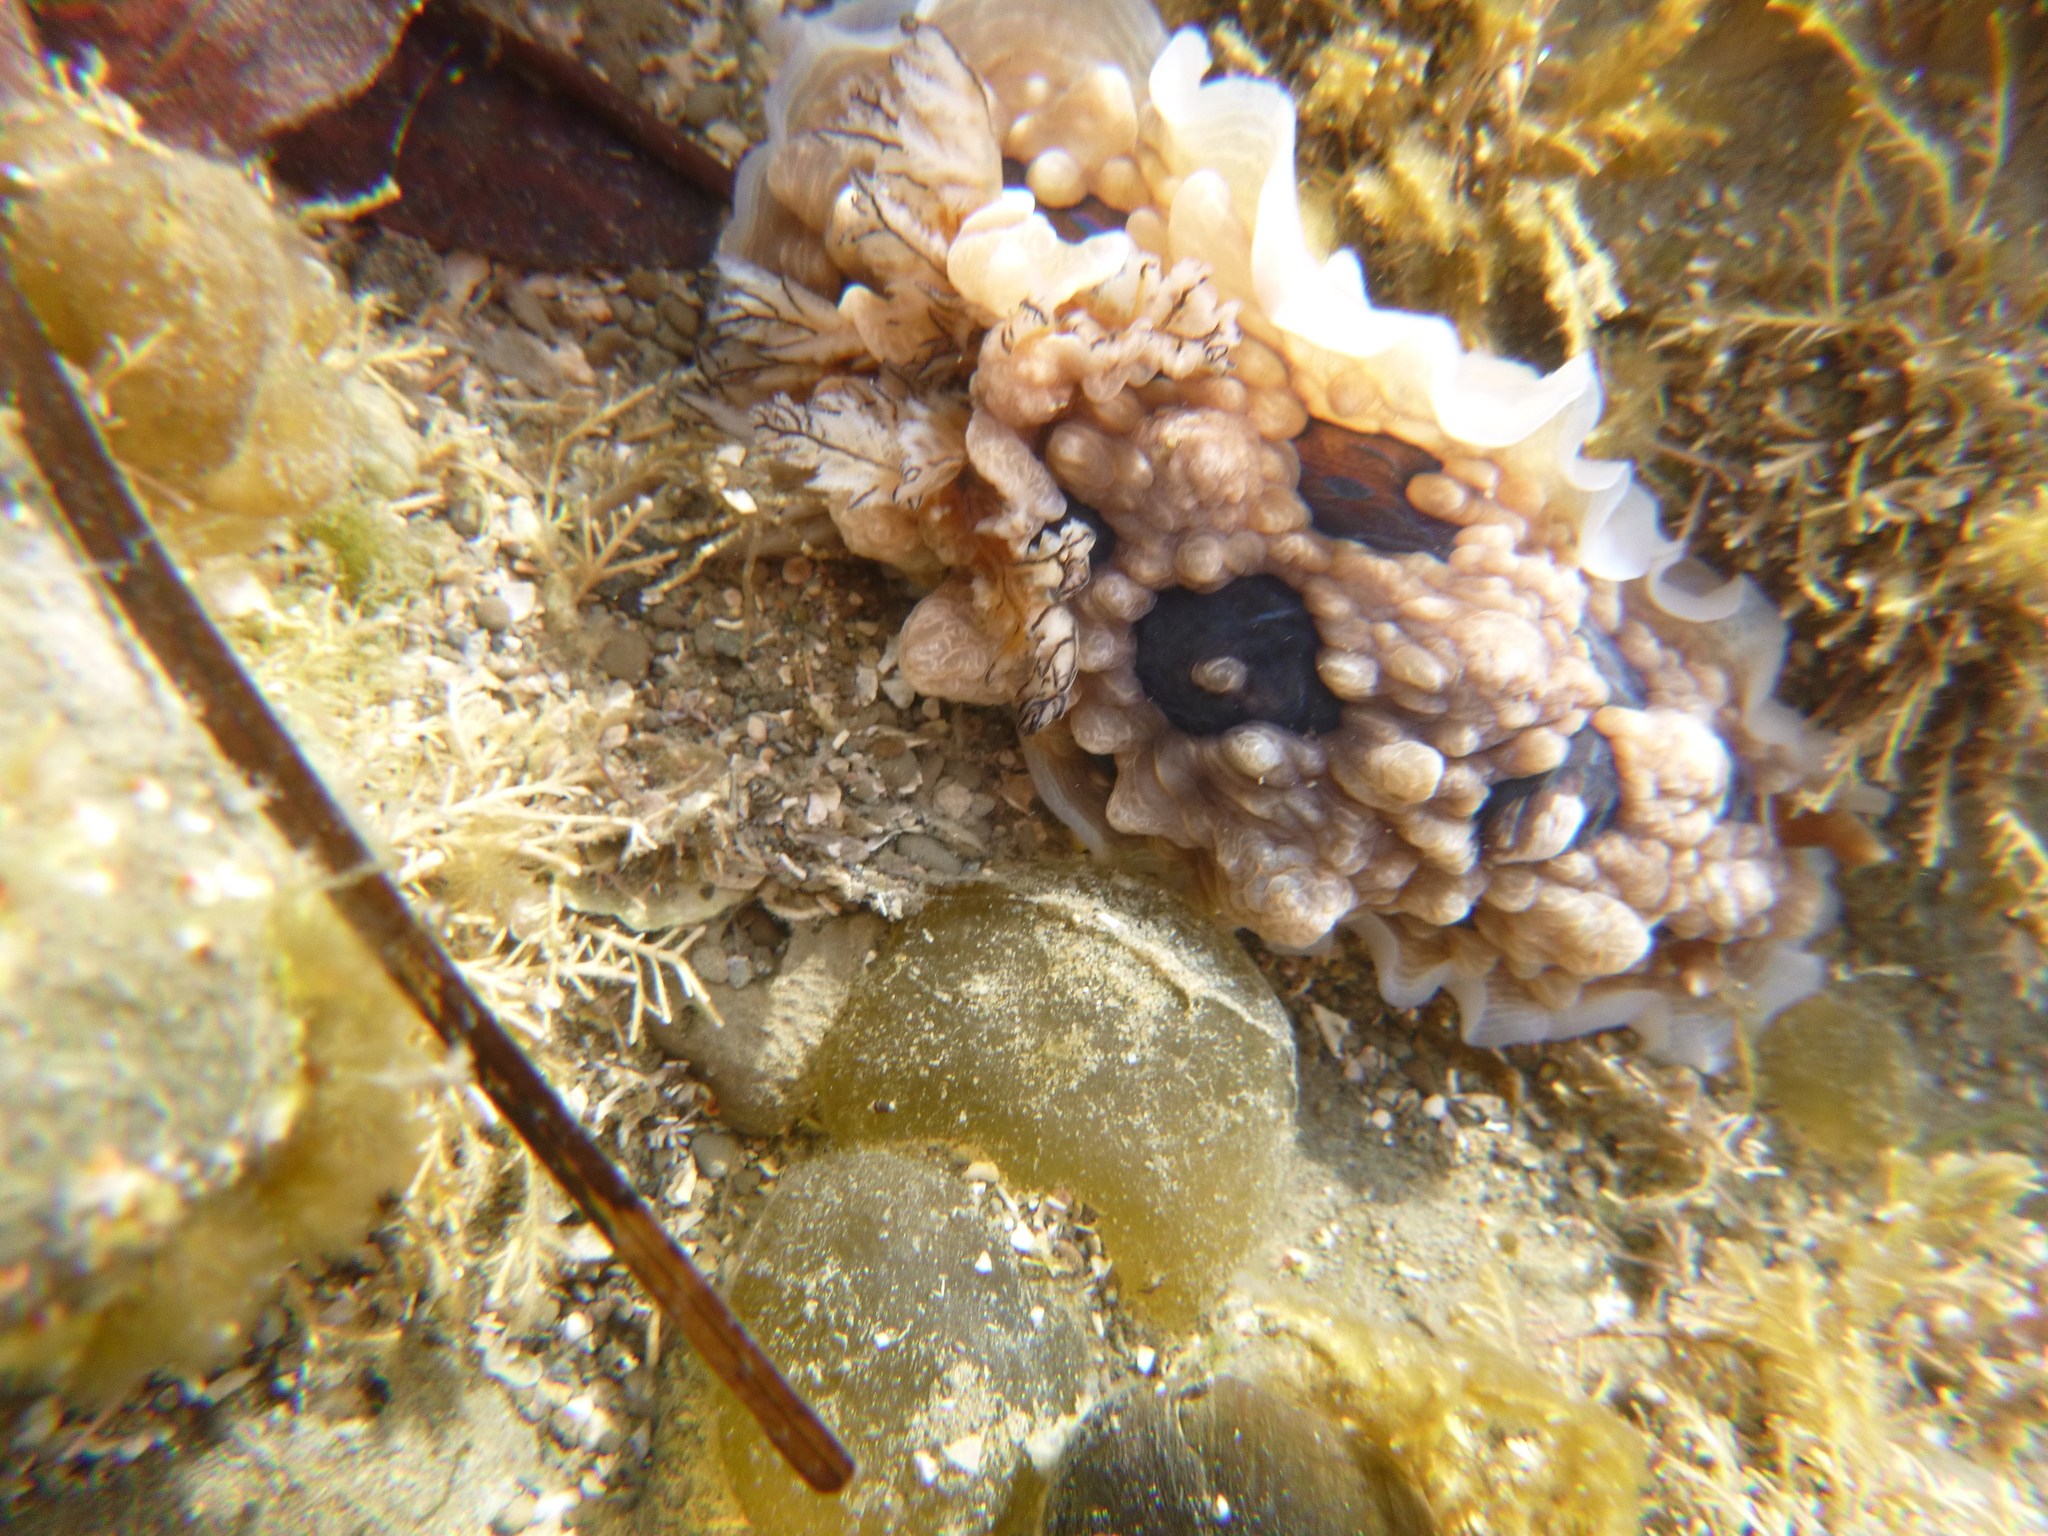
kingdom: Animalia
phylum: Mollusca
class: Gastropoda
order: Nudibranchia
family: Dendrodorididae
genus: Dendrodoris
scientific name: Dendrodoris krusensternii
